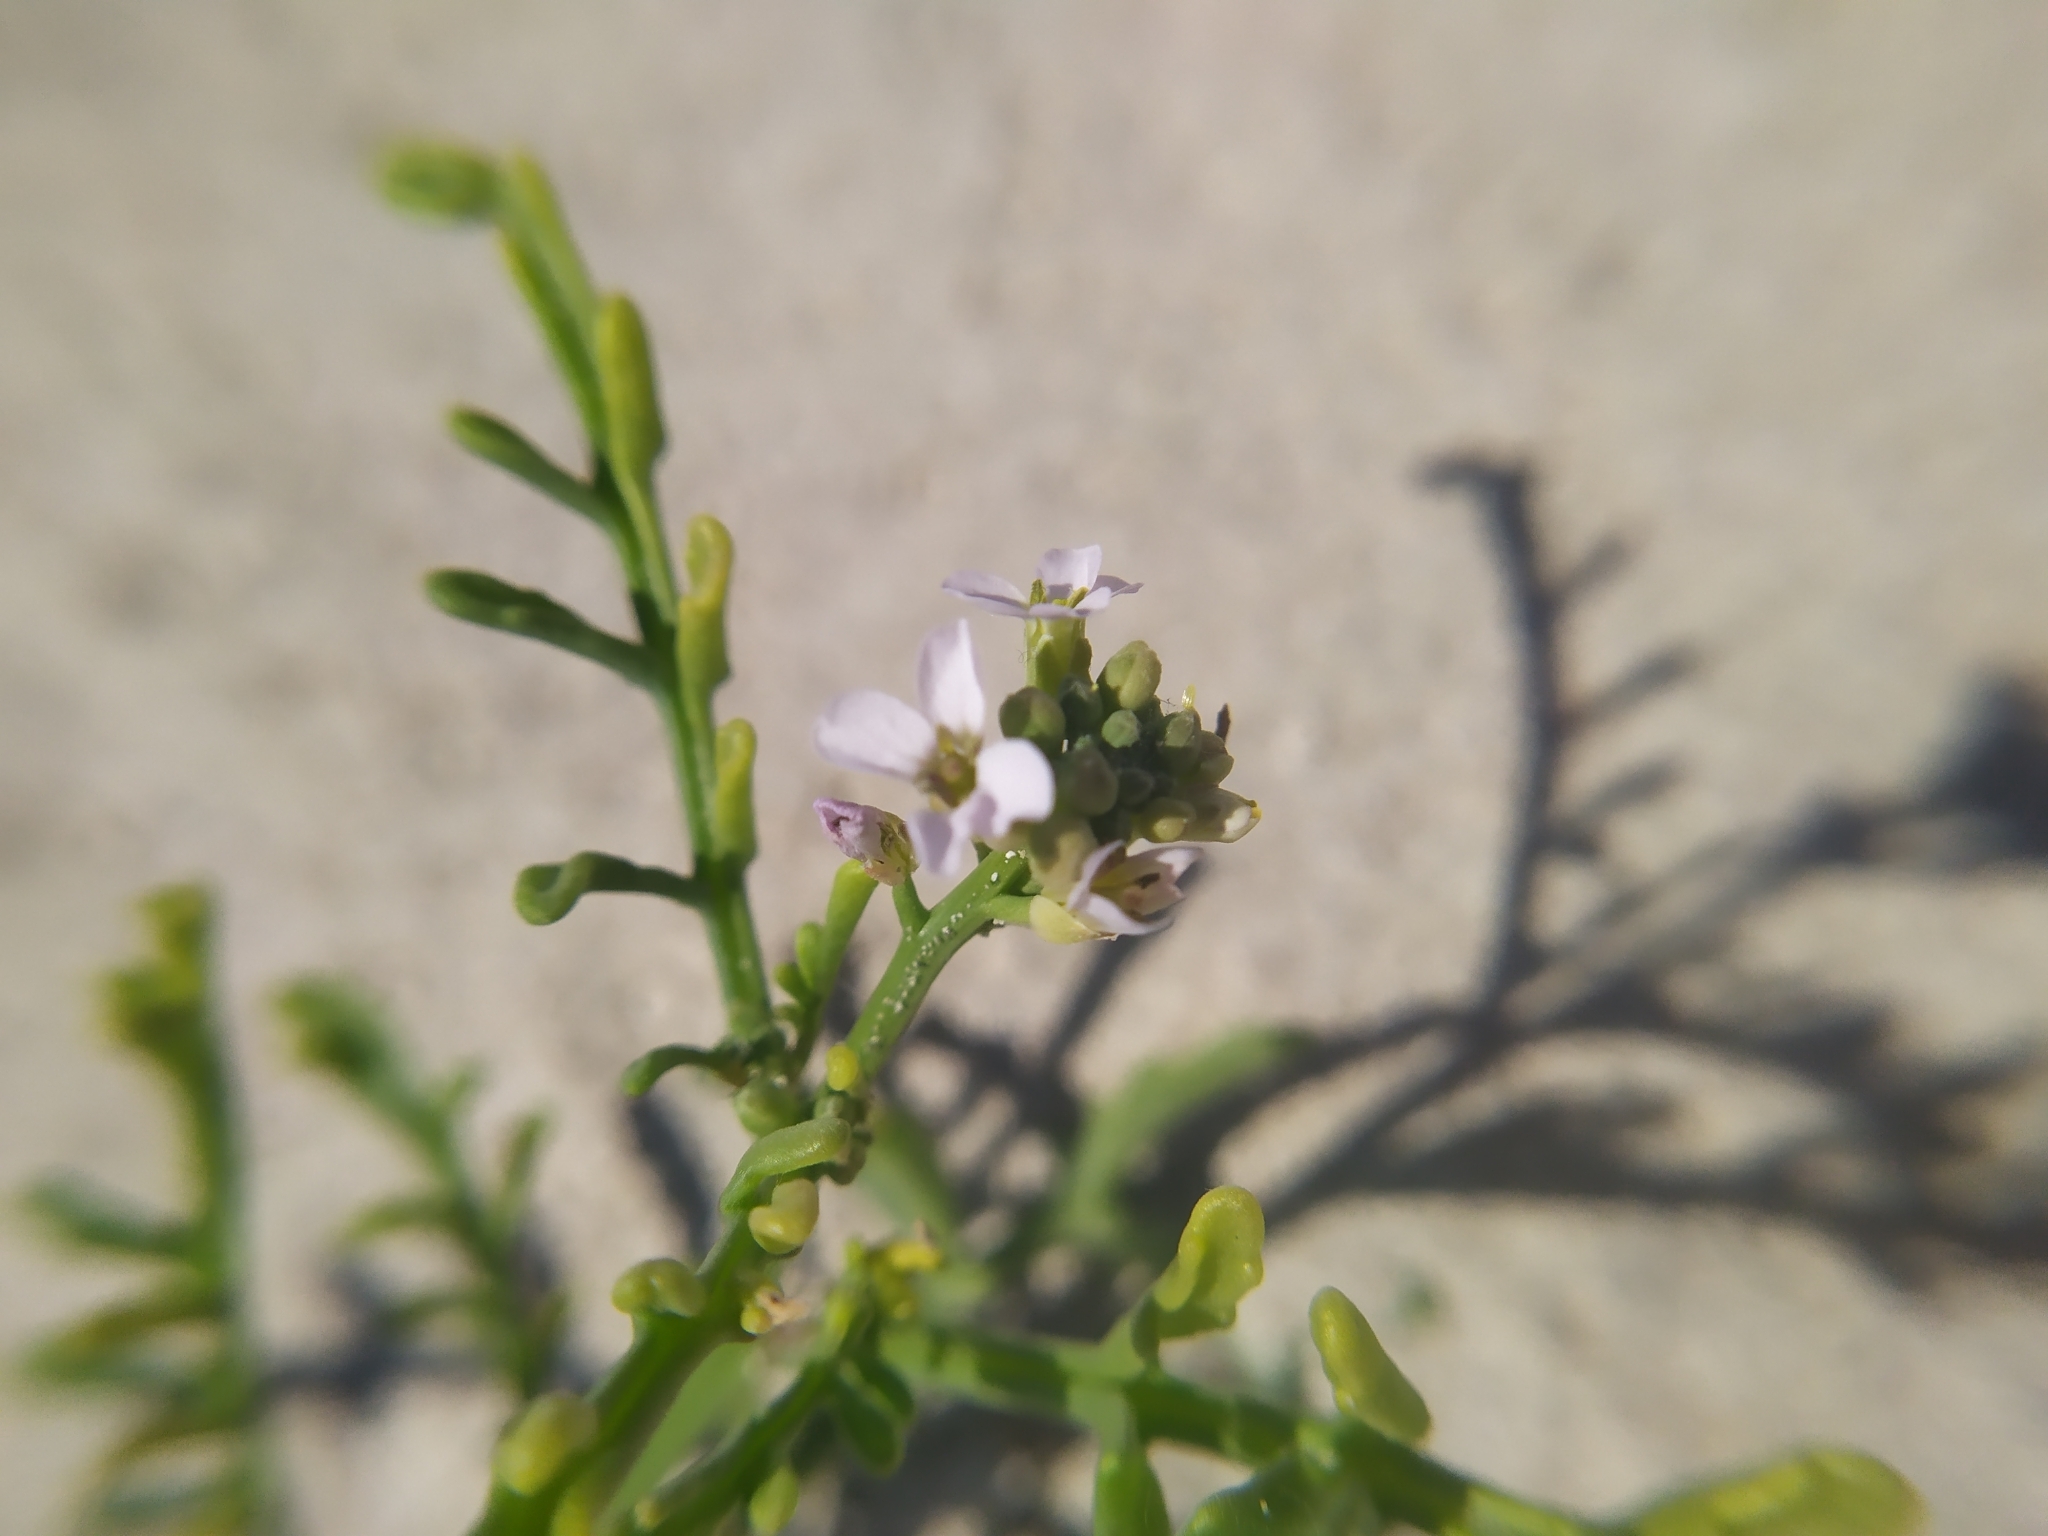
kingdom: Plantae
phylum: Tracheophyta
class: Magnoliopsida
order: Brassicales
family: Brassicaceae
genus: Cakile
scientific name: Cakile maritima
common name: Sea rocket
